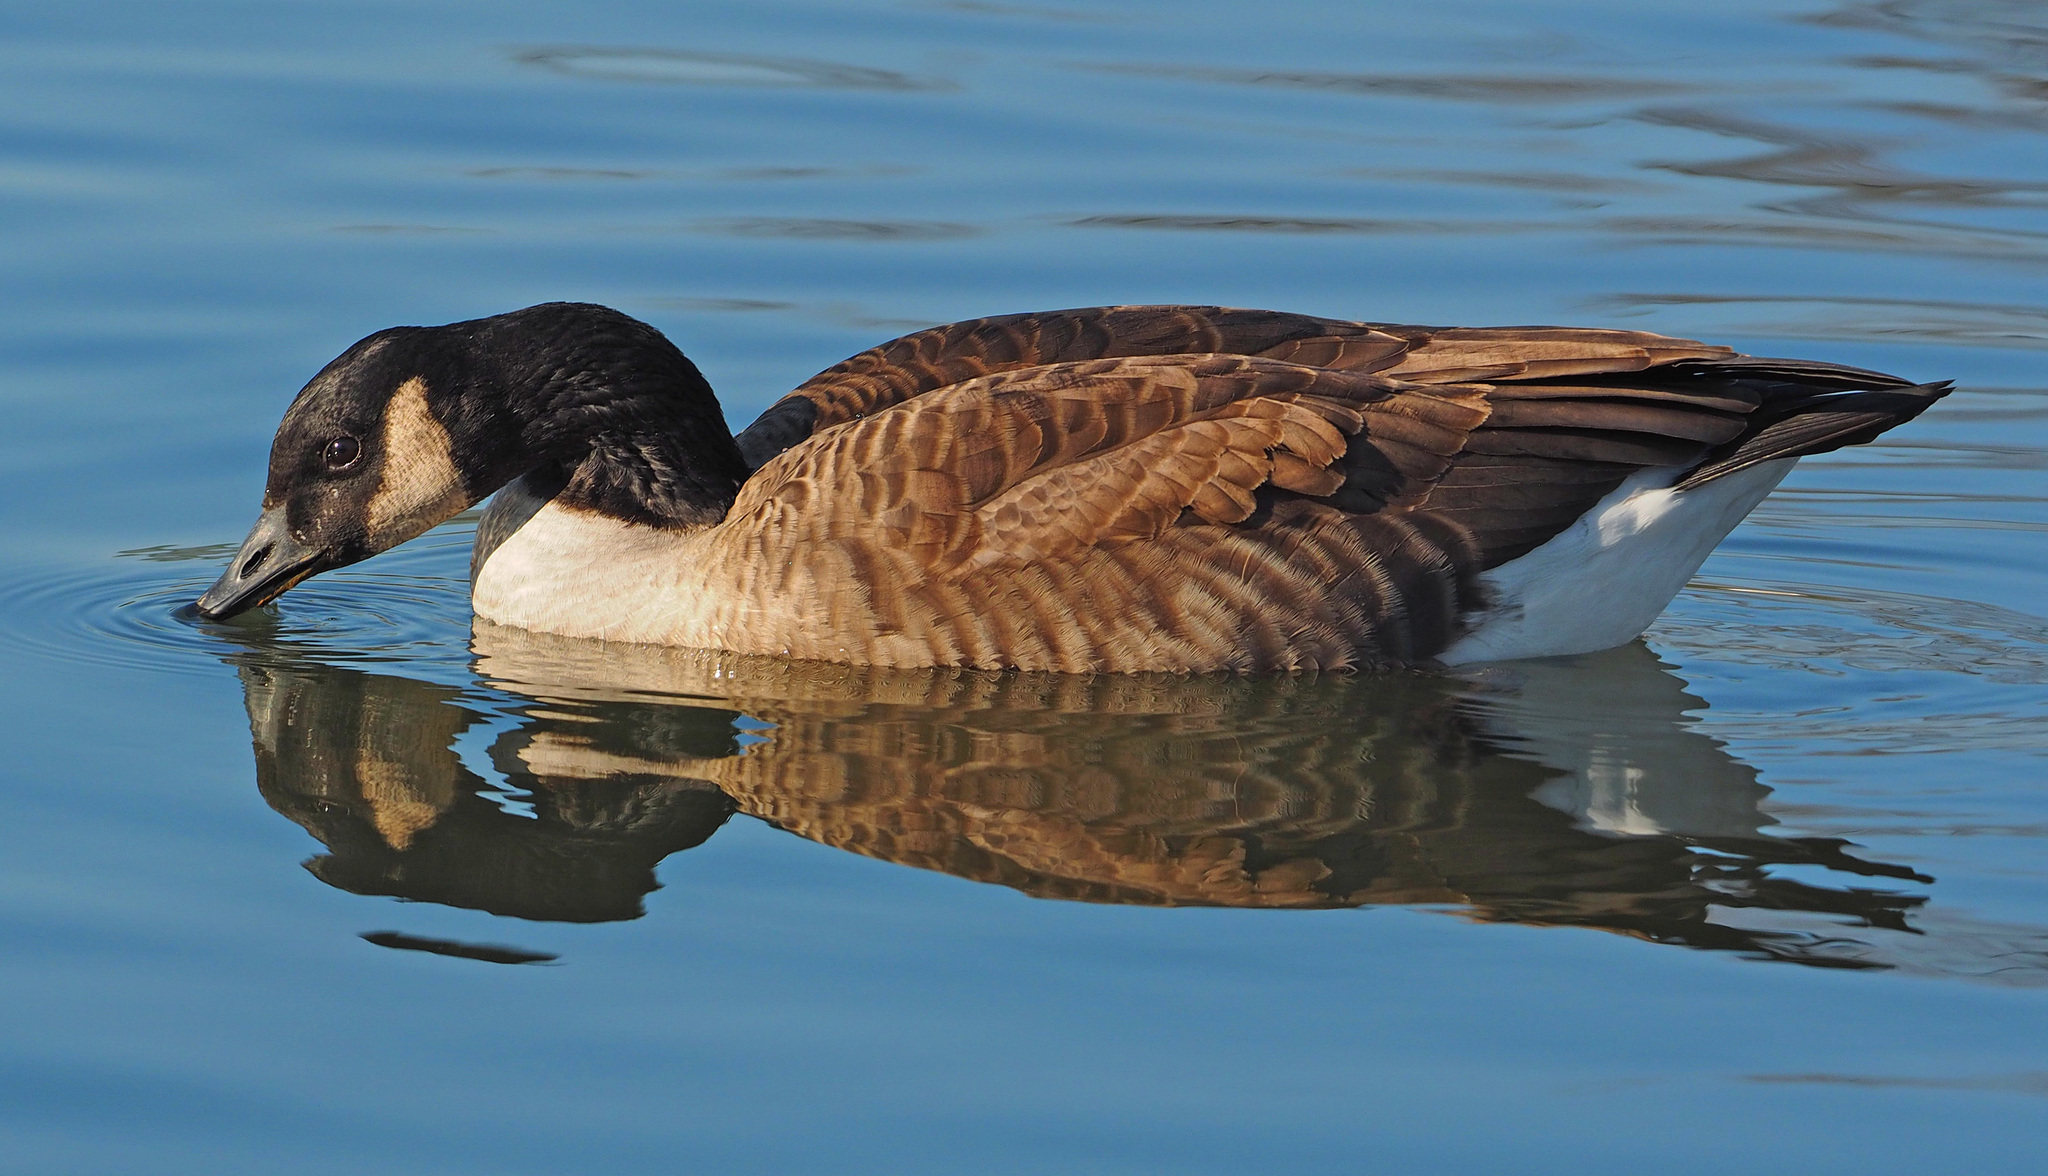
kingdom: Animalia
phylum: Chordata
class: Aves
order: Anseriformes
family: Anatidae
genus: Branta
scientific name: Branta canadensis
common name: Canada goose
